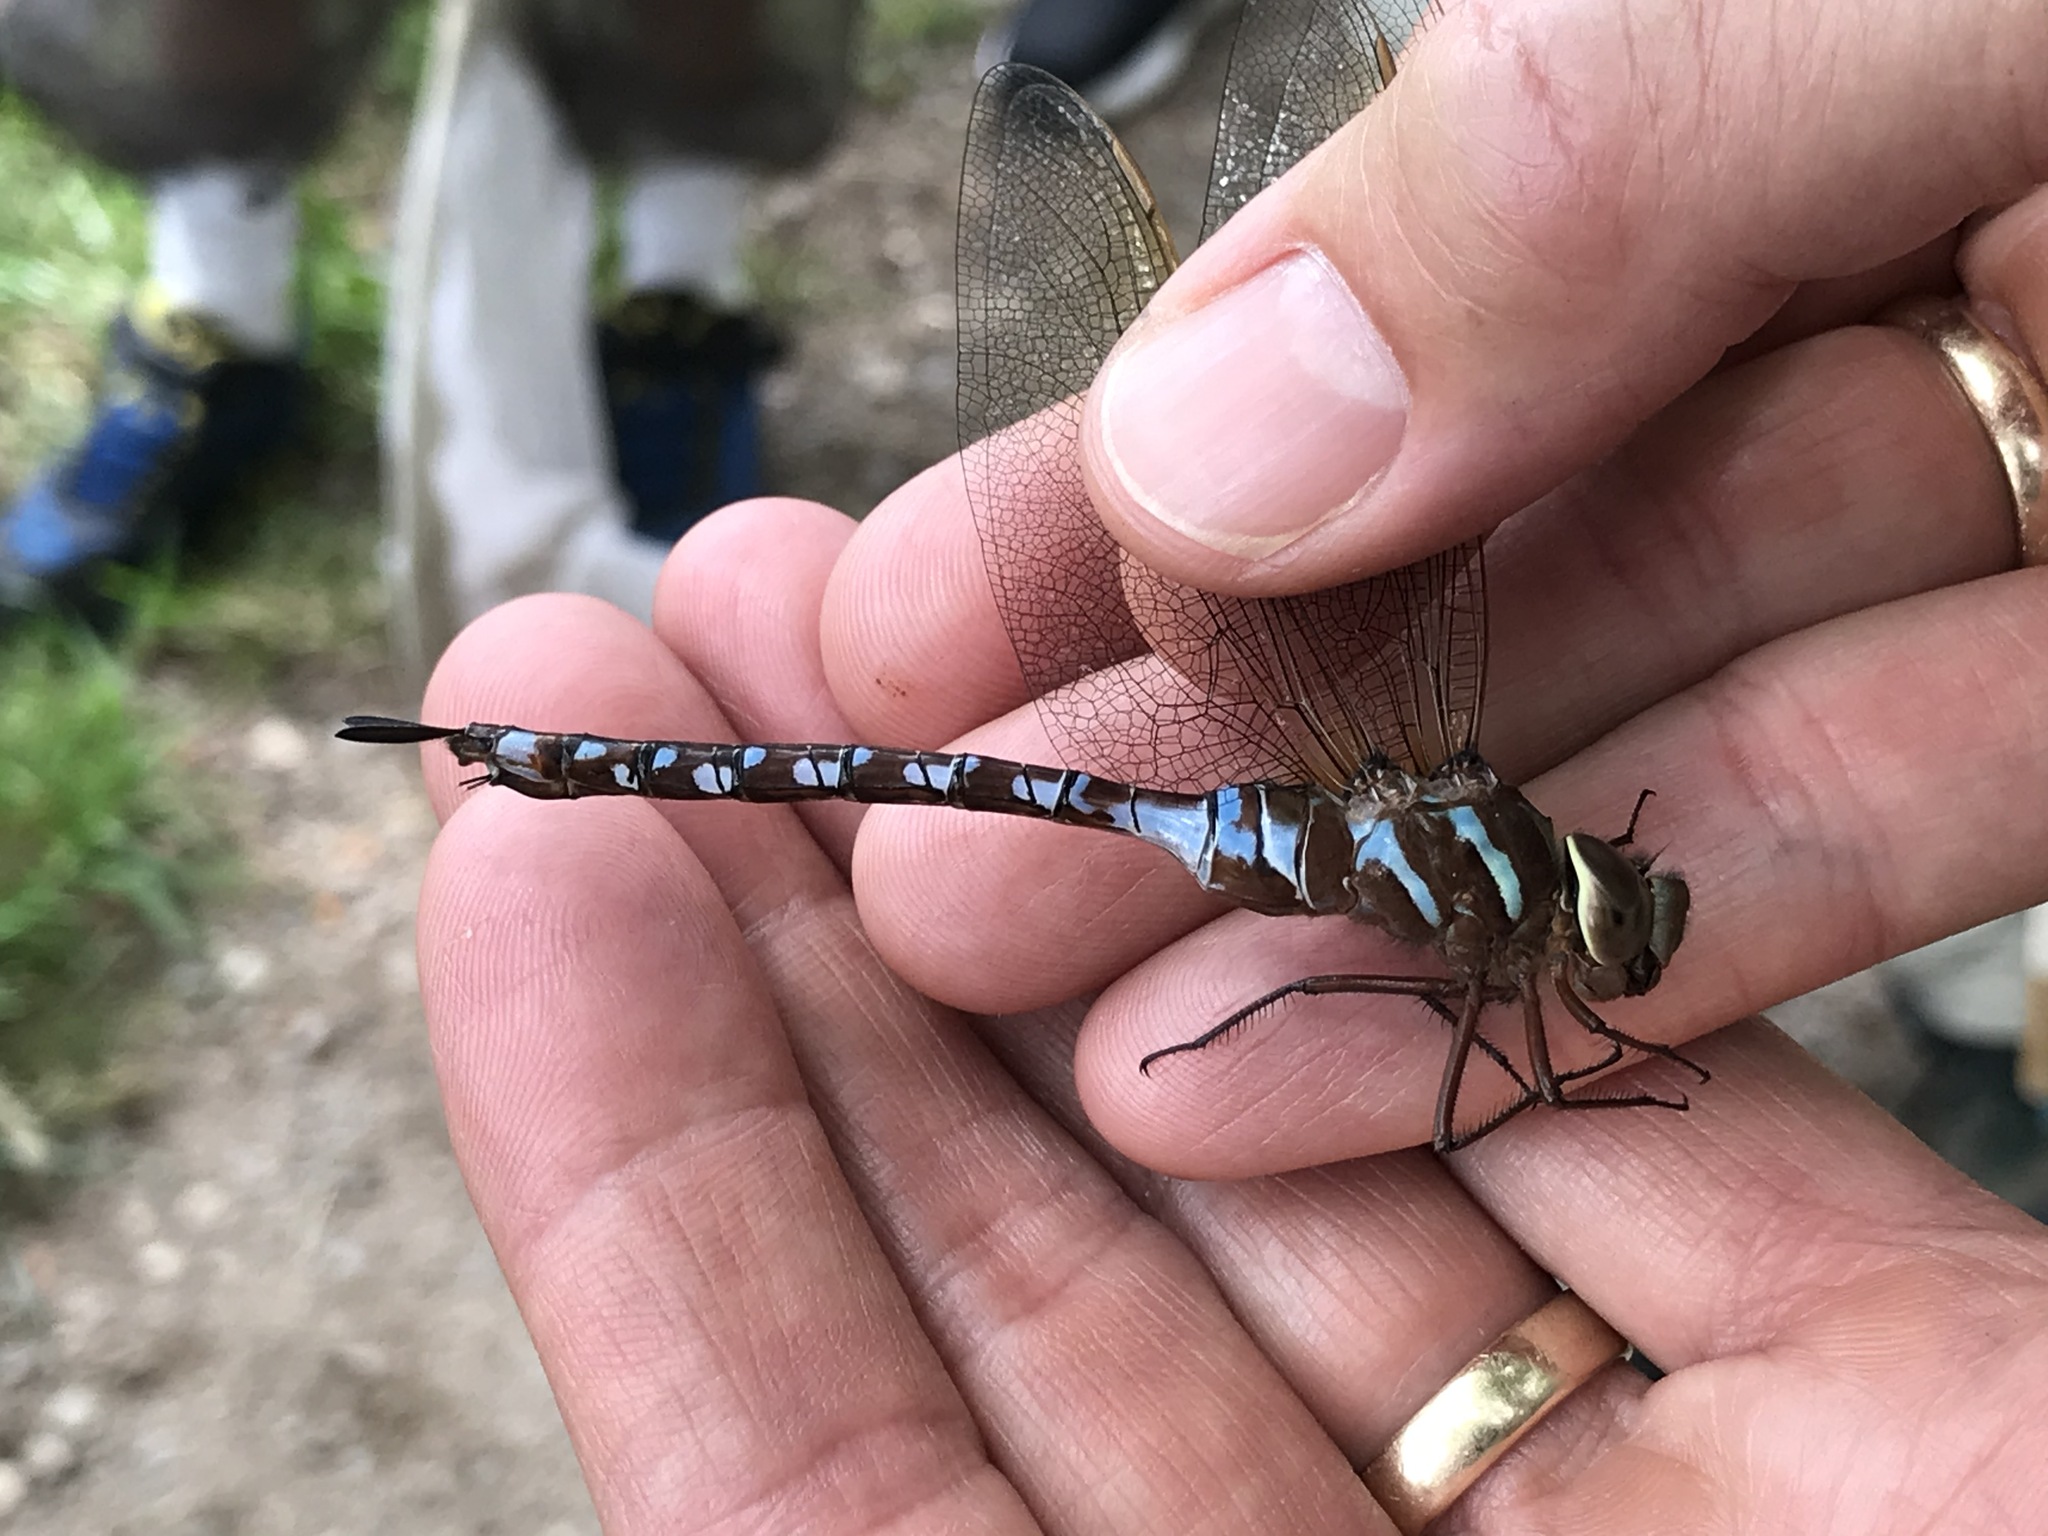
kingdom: Animalia
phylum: Arthropoda
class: Insecta
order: Odonata
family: Aeshnidae
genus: Aeshna
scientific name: Aeshna constricta
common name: Lance-tipped darner
